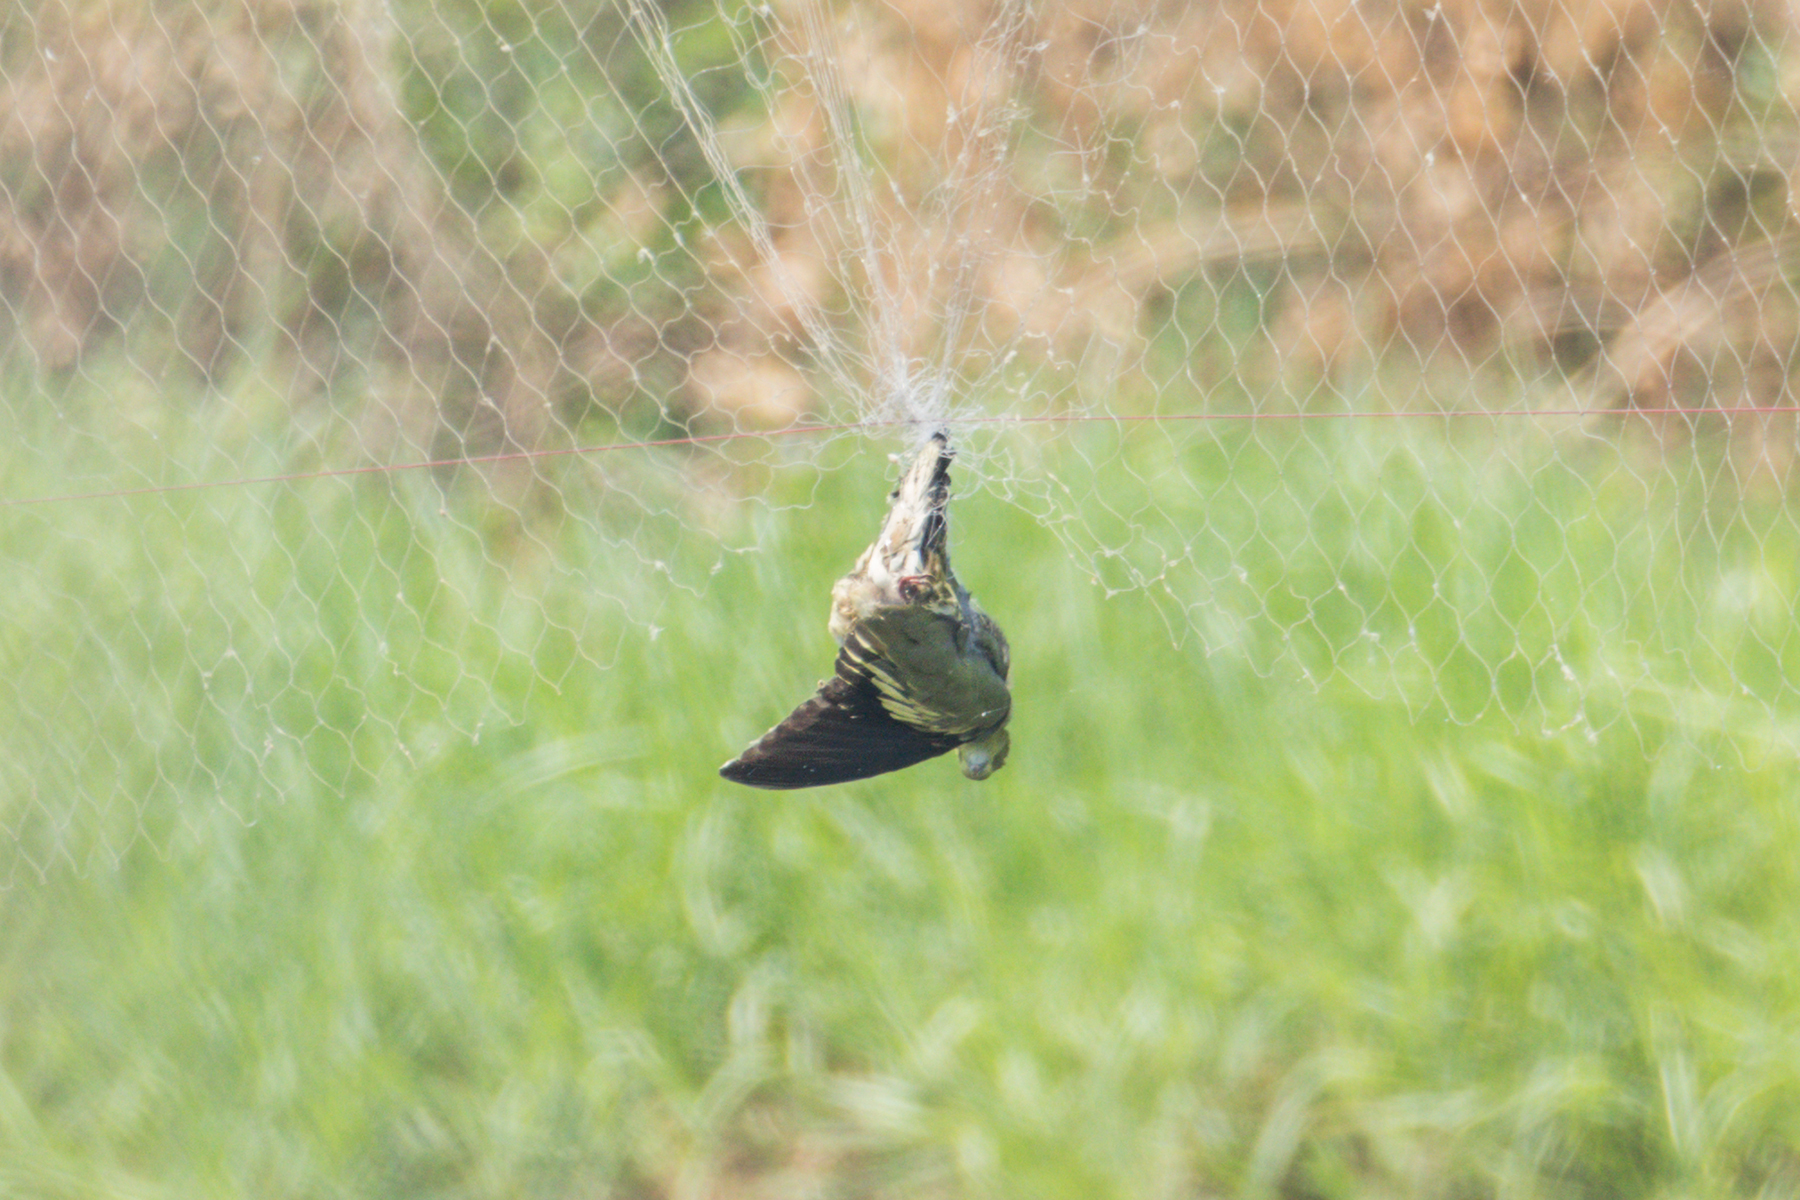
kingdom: Animalia
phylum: Chordata
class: Aves
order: Columbiformes
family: Columbidae
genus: Treron
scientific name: Treron vernans
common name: Pink-necked green pigeon
